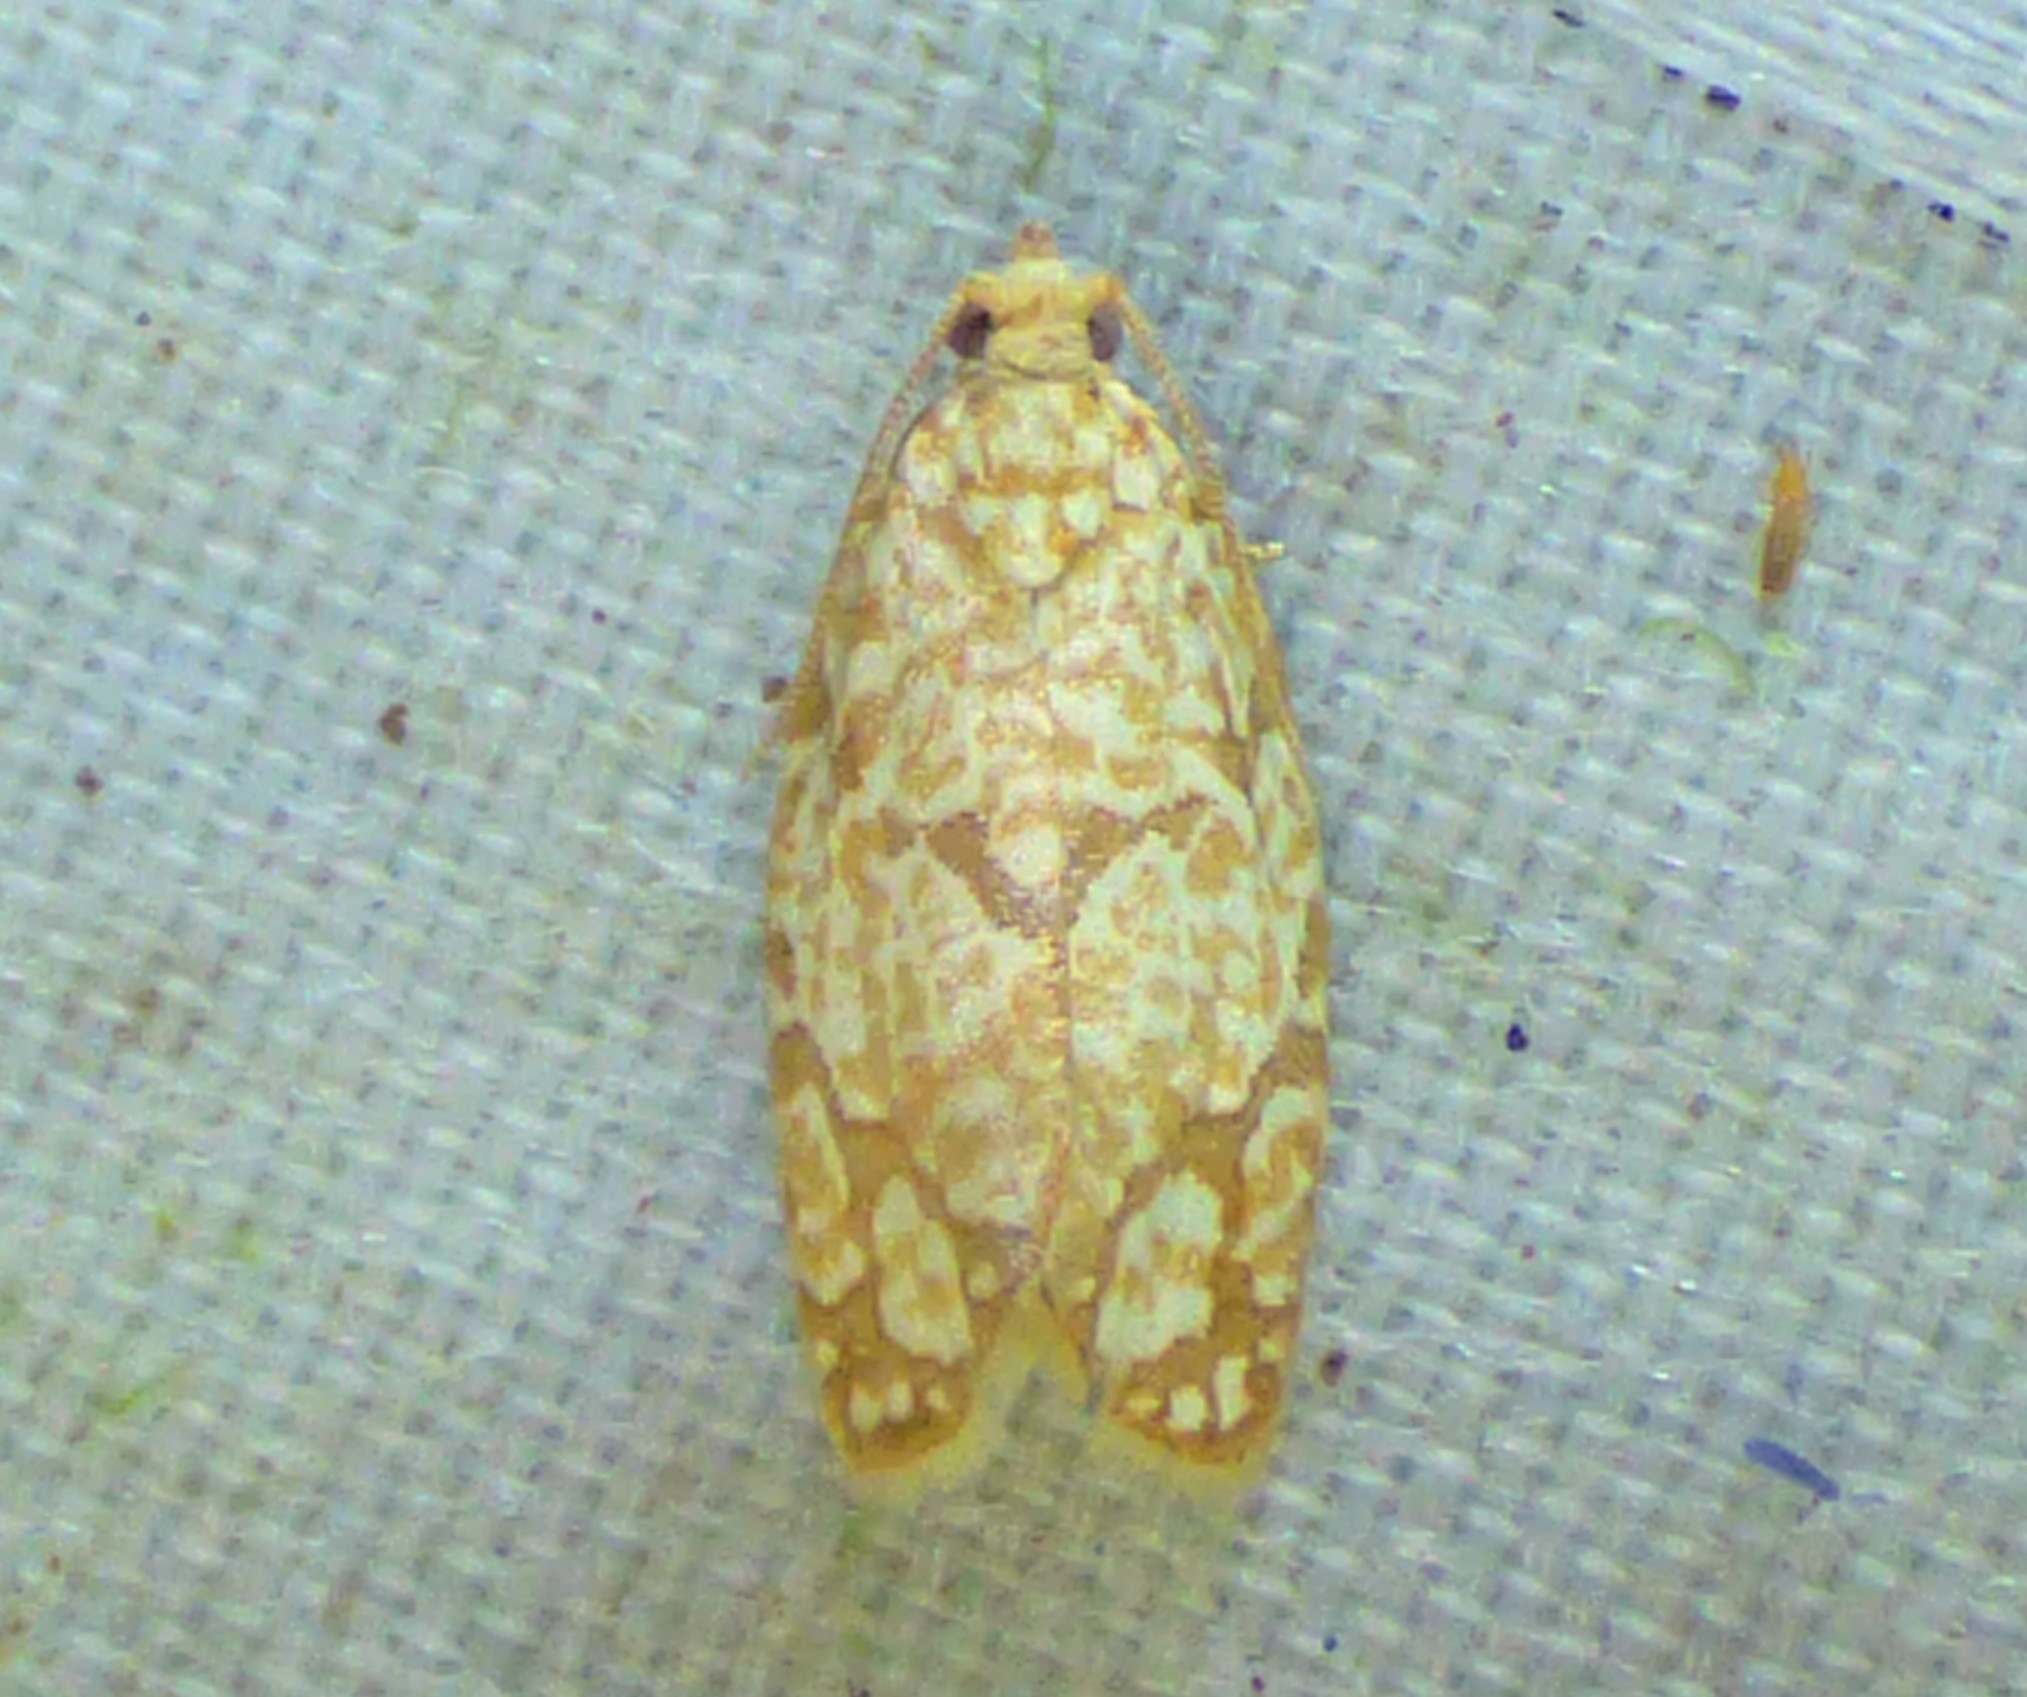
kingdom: Animalia
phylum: Arthropoda
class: Insecta
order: Lepidoptera
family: Tortricidae
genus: Argyrotaenia
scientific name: Argyrotaenia quercifoliana
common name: Yellow-winged oak leafroller moth
